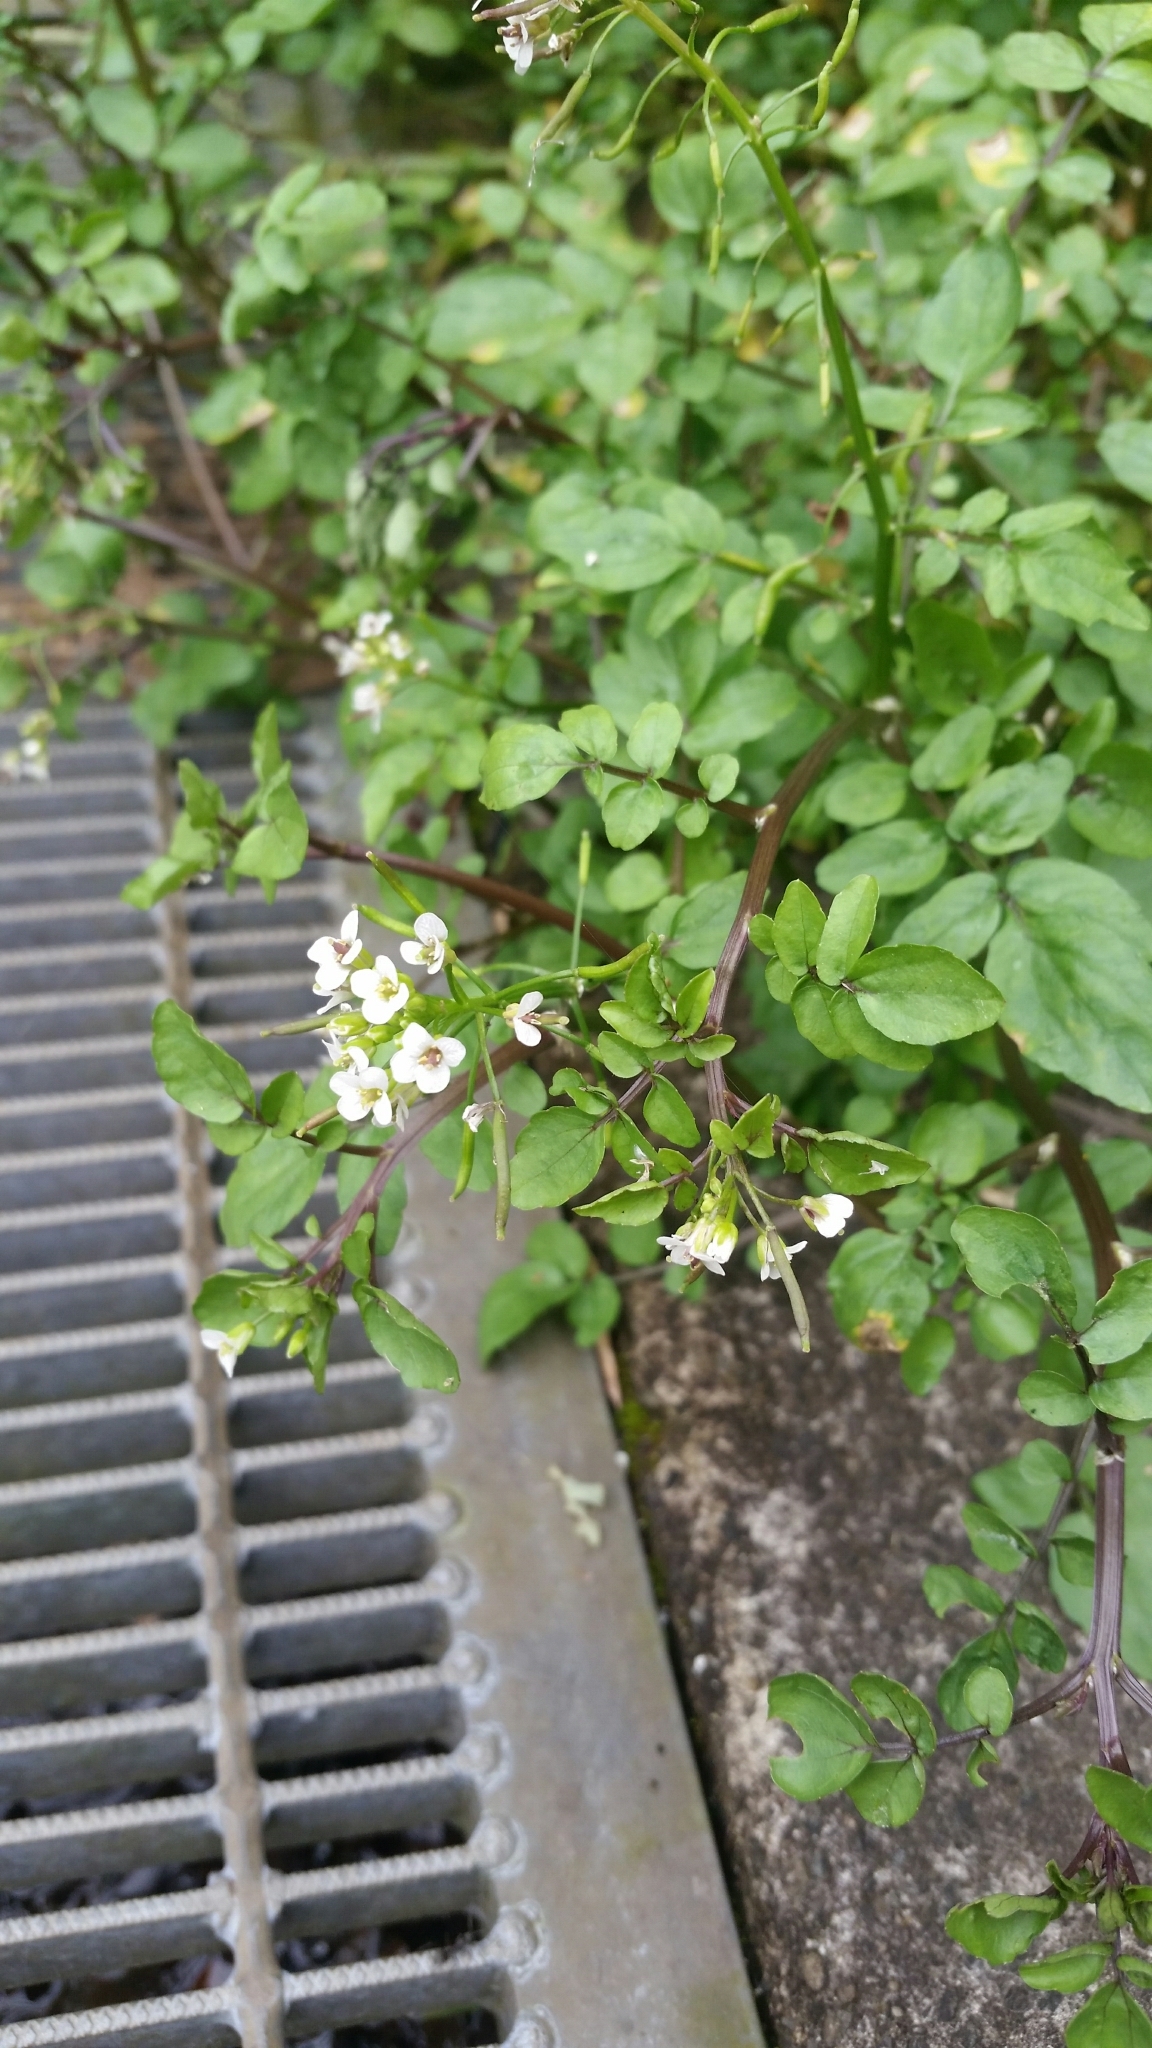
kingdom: Plantae
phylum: Tracheophyta
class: Magnoliopsida
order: Brassicales
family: Brassicaceae
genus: Nasturtium
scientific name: Nasturtium officinale
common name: Watercress
